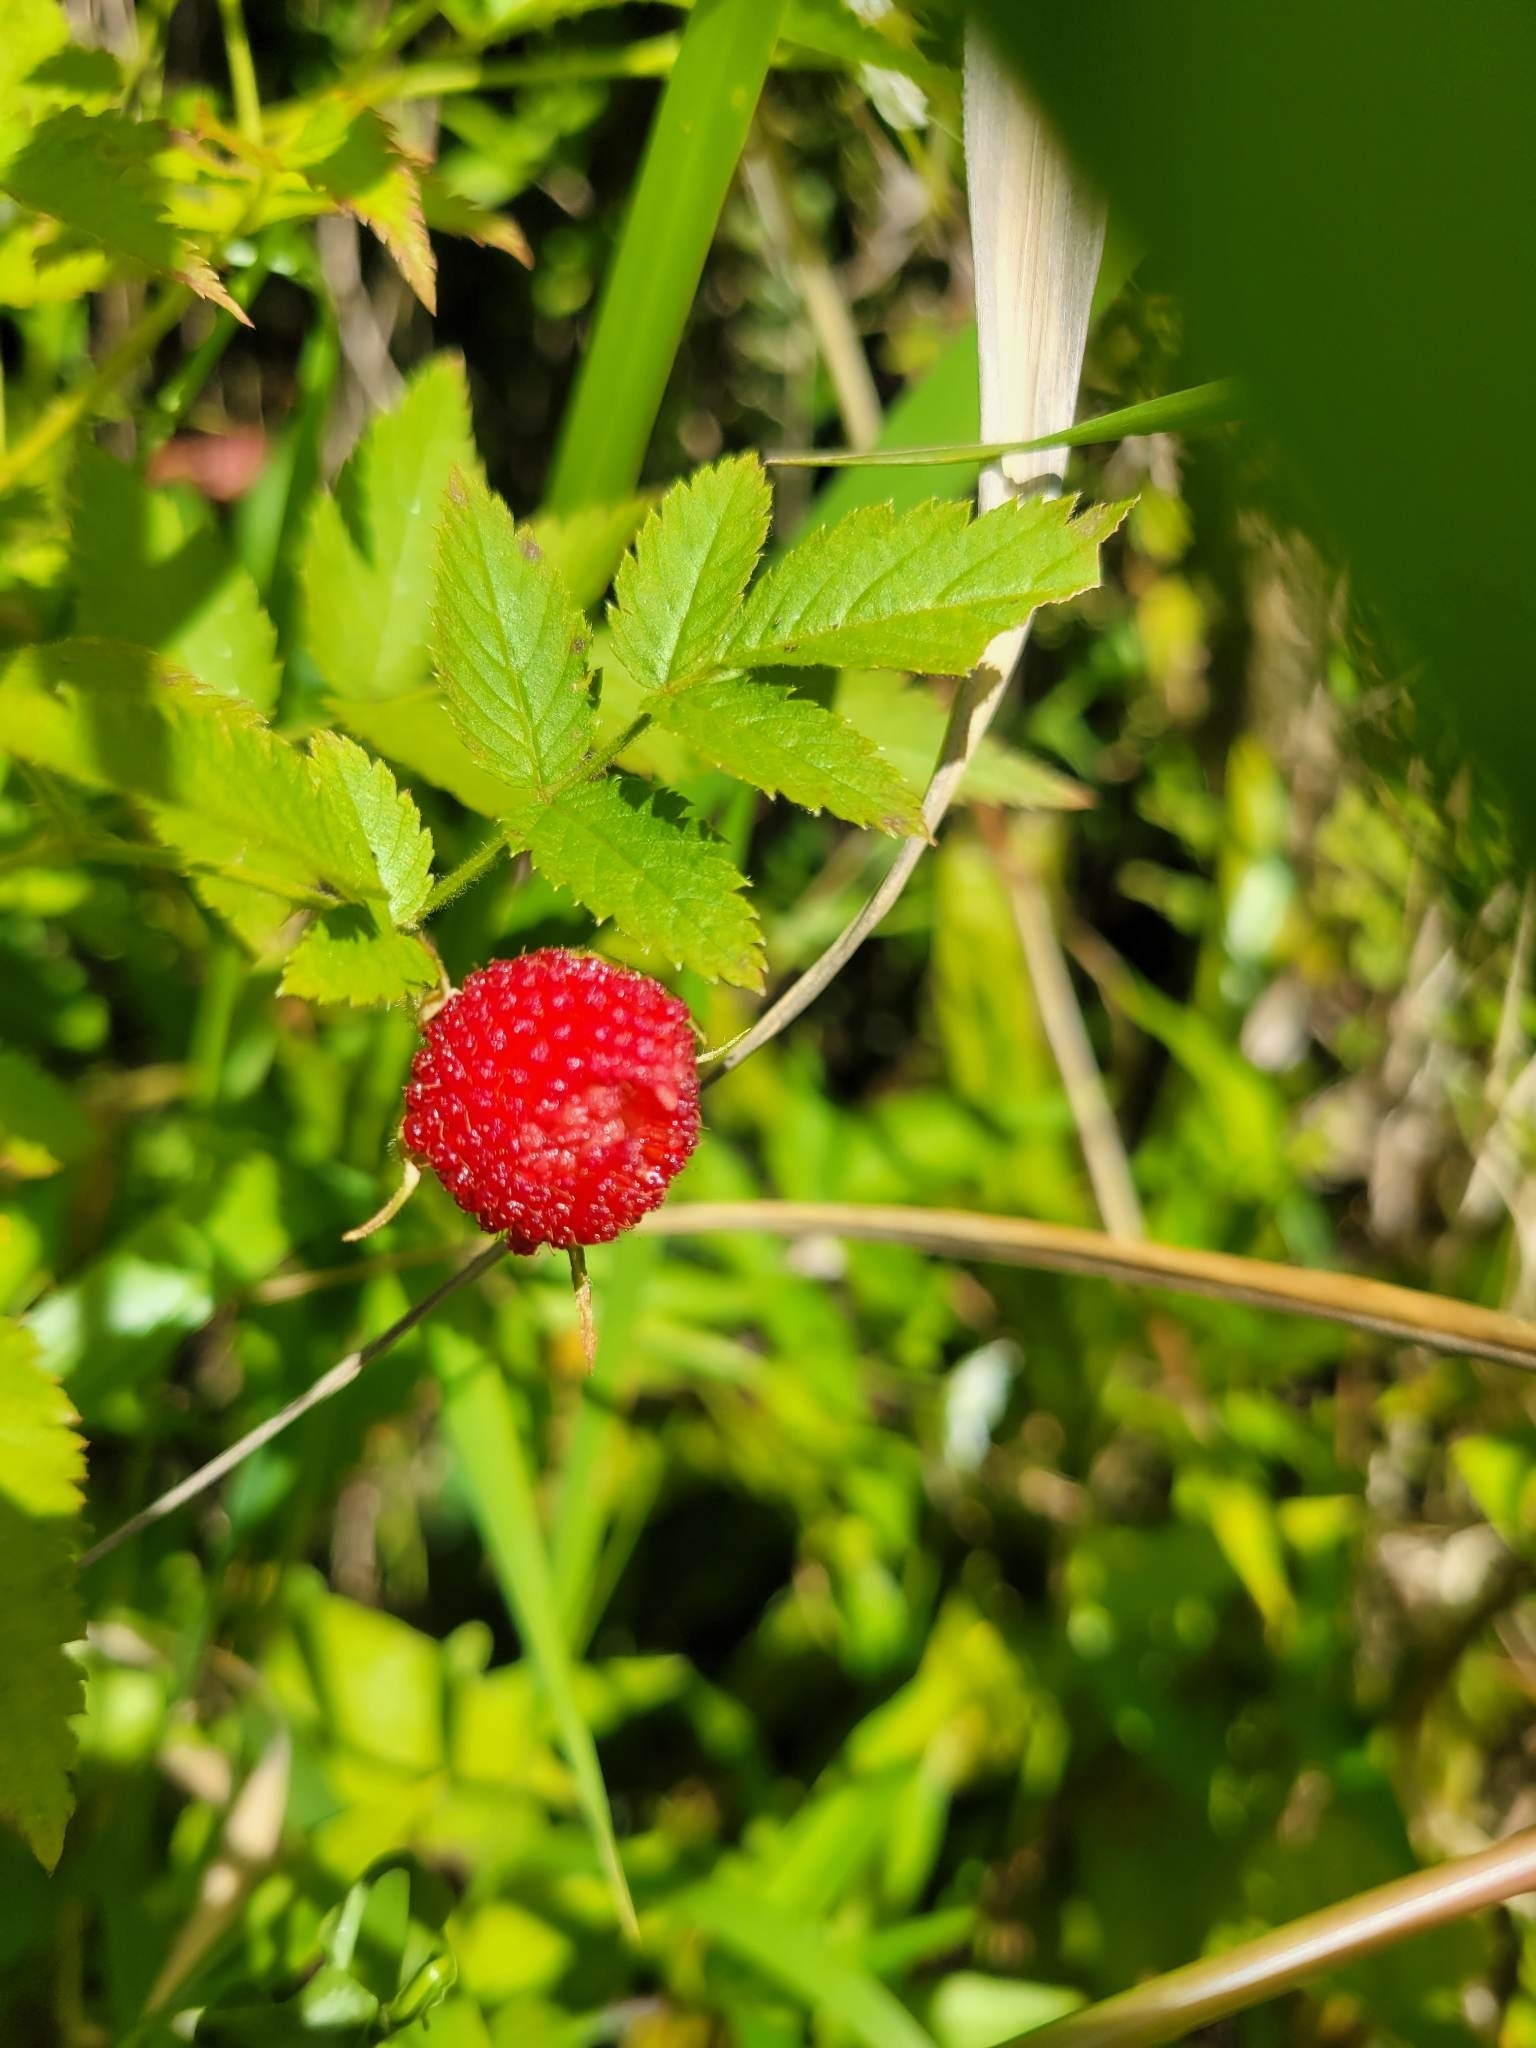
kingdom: Plantae
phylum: Tracheophyta
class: Magnoliopsida
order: Rosales
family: Rosaceae
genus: Rubus
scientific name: Rubus rosifolius
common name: Roseleaf raspberry
